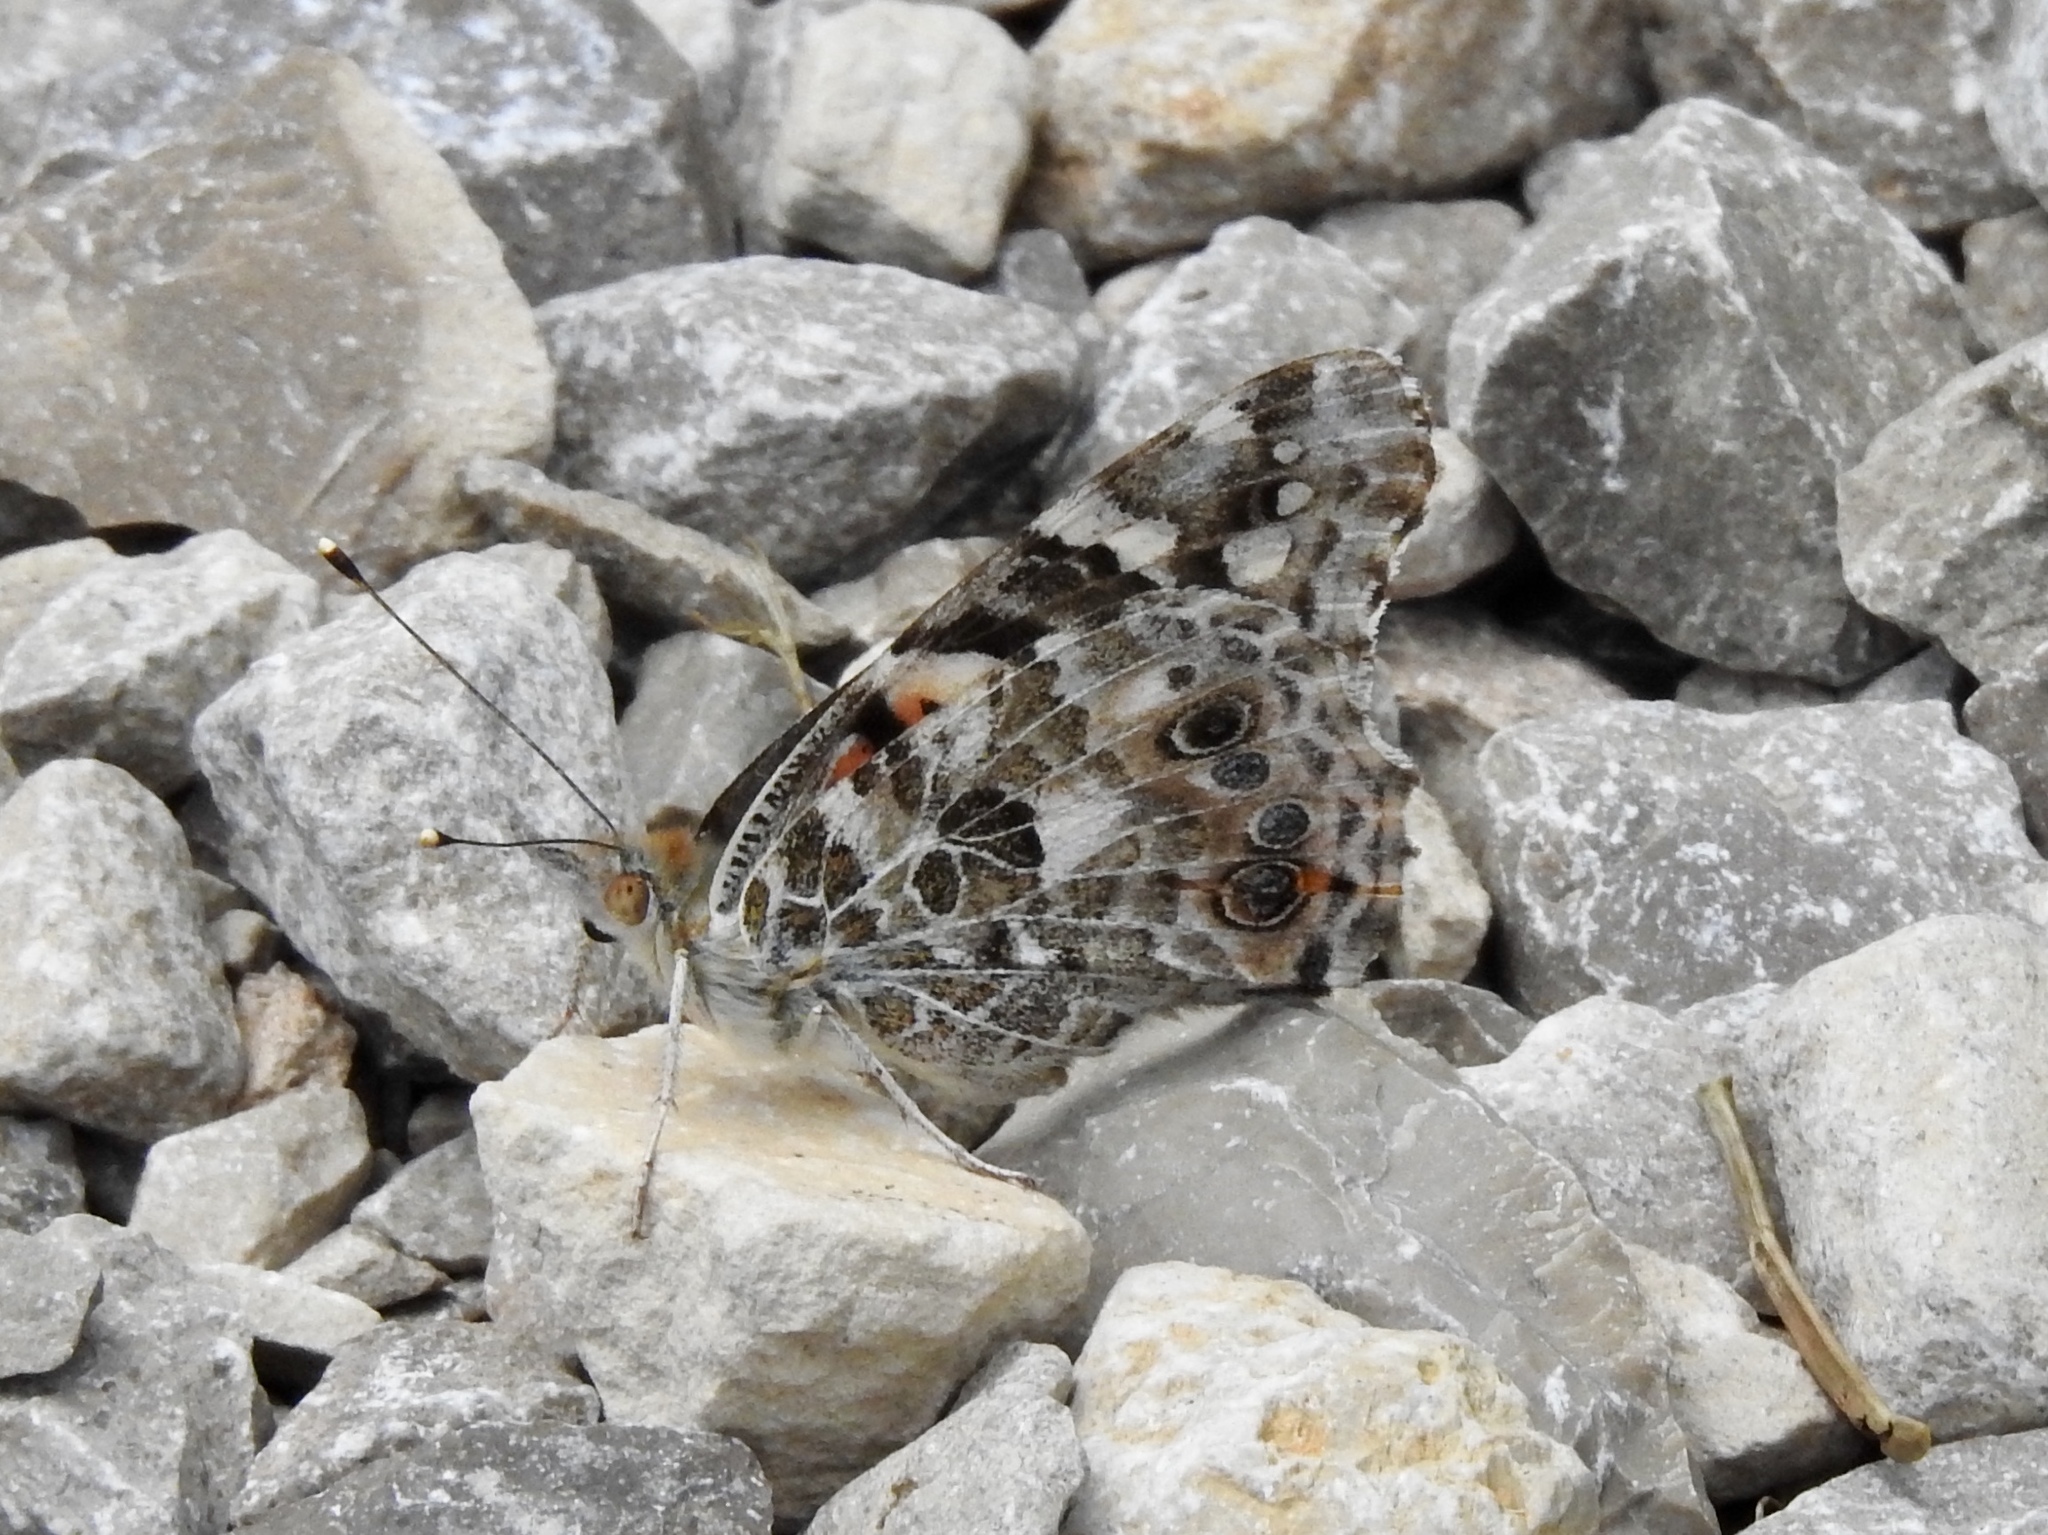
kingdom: Animalia
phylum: Arthropoda
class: Insecta
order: Lepidoptera
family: Nymphalidae
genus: Vanessa
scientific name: Vanessa cardui
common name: Painted lady
